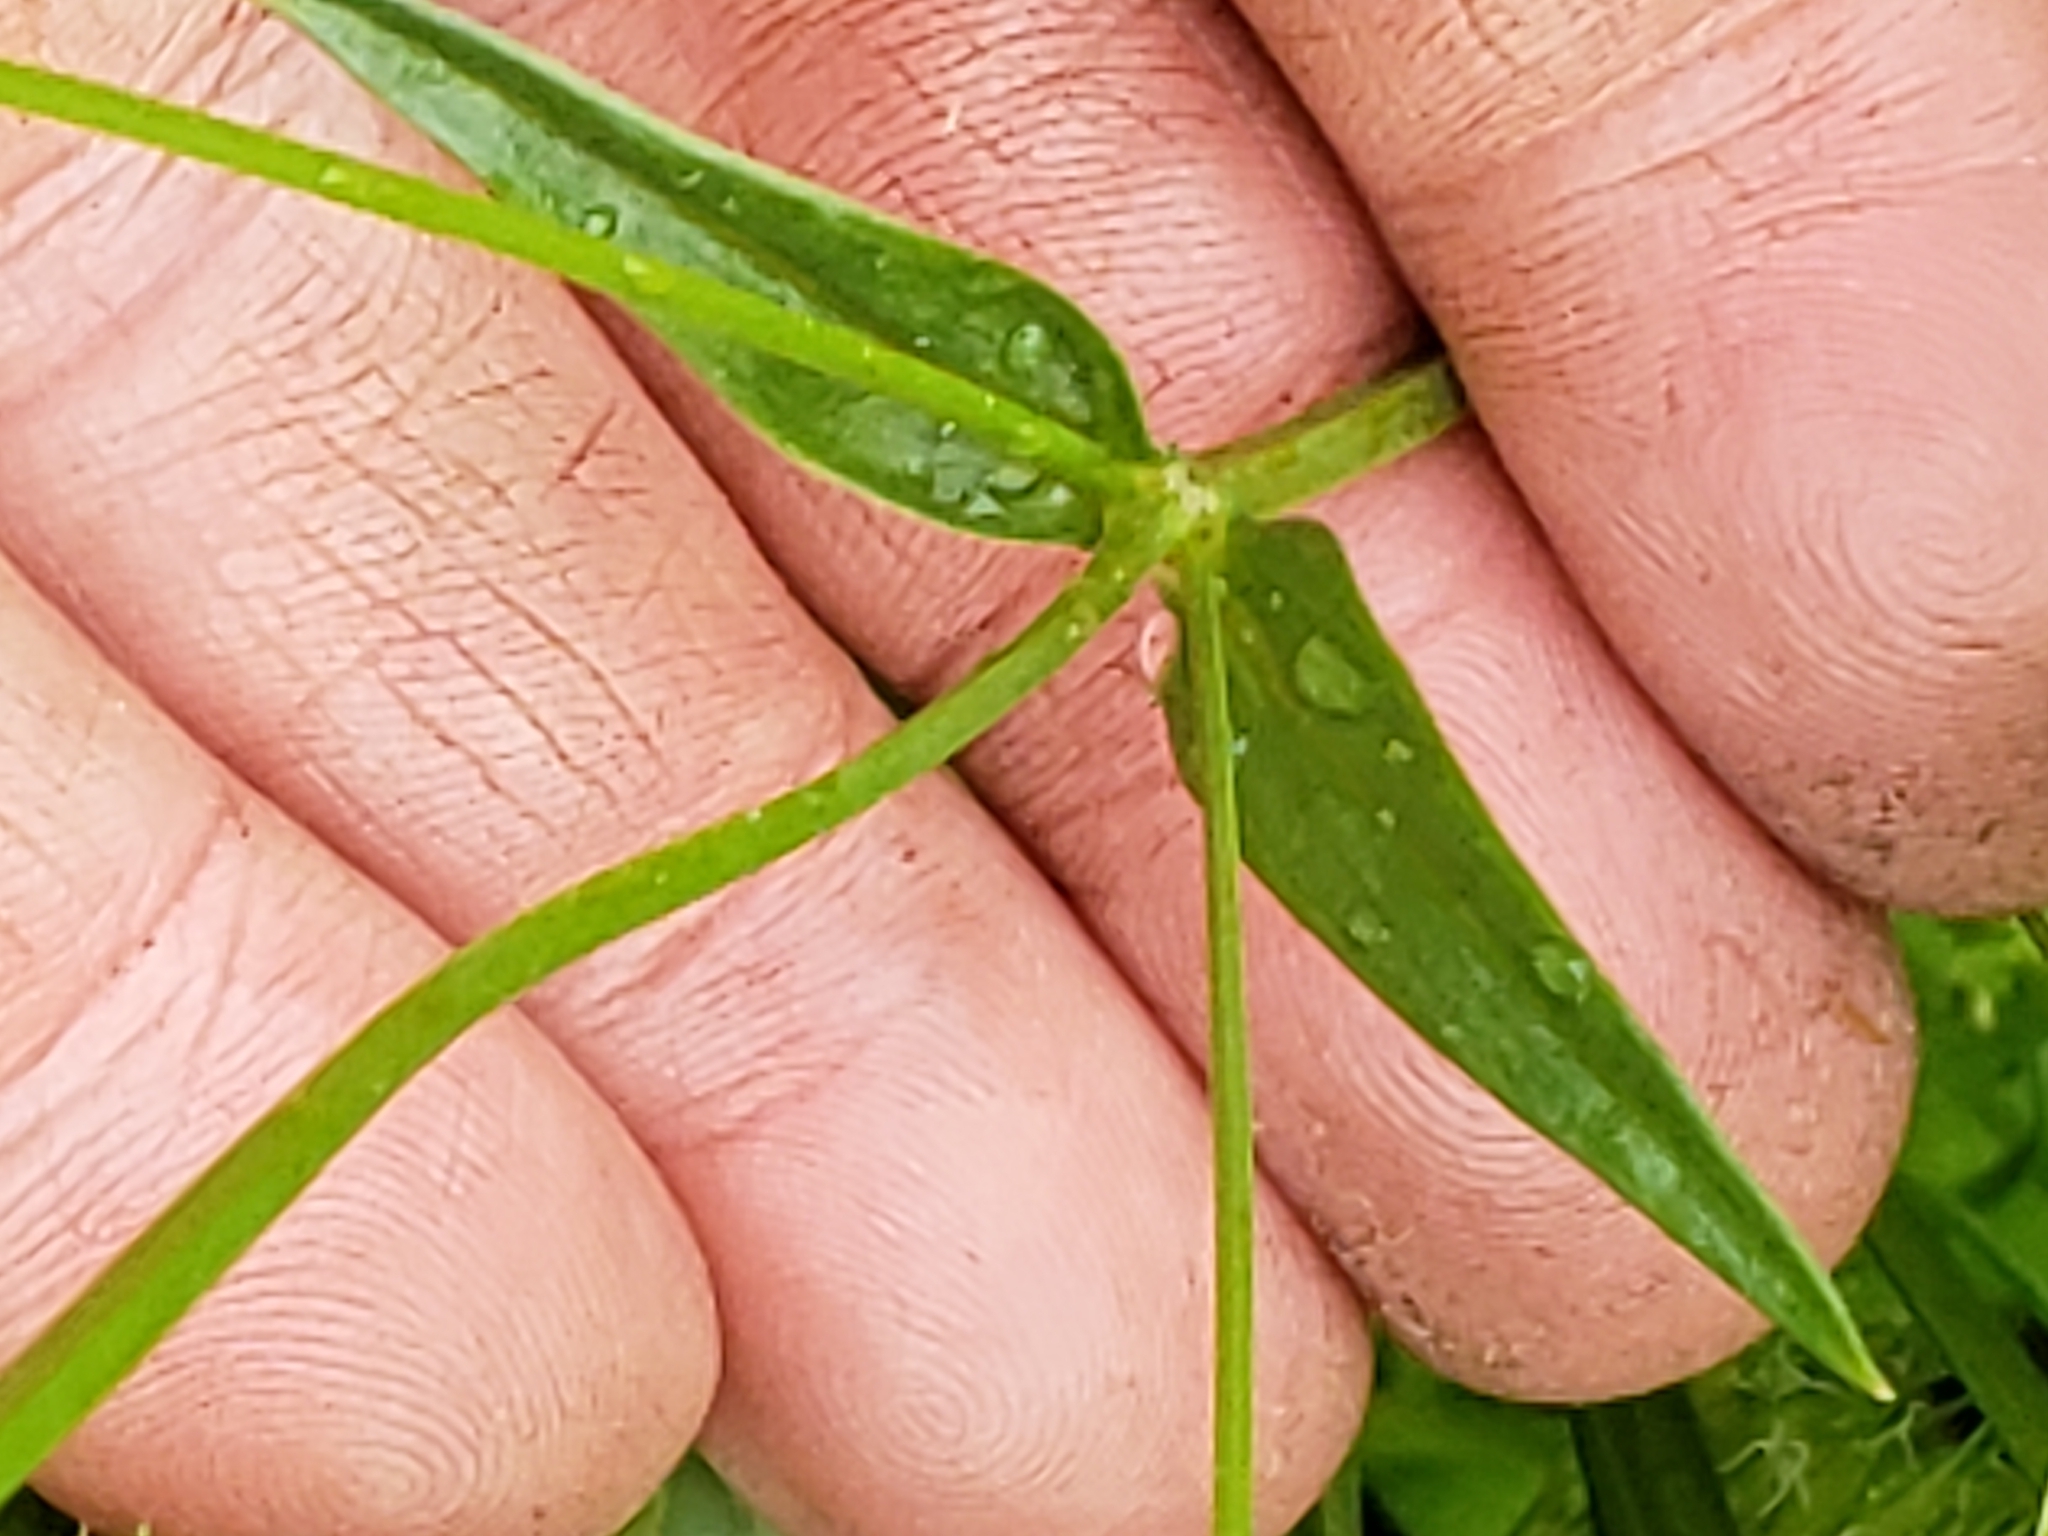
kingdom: Plantae
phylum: Tracheophyta
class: Magnoliopsida
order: Caryophyllales
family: Caryophyllaceae
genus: Stellaria
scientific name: Stellaria graminea
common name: Grass-like starwort
